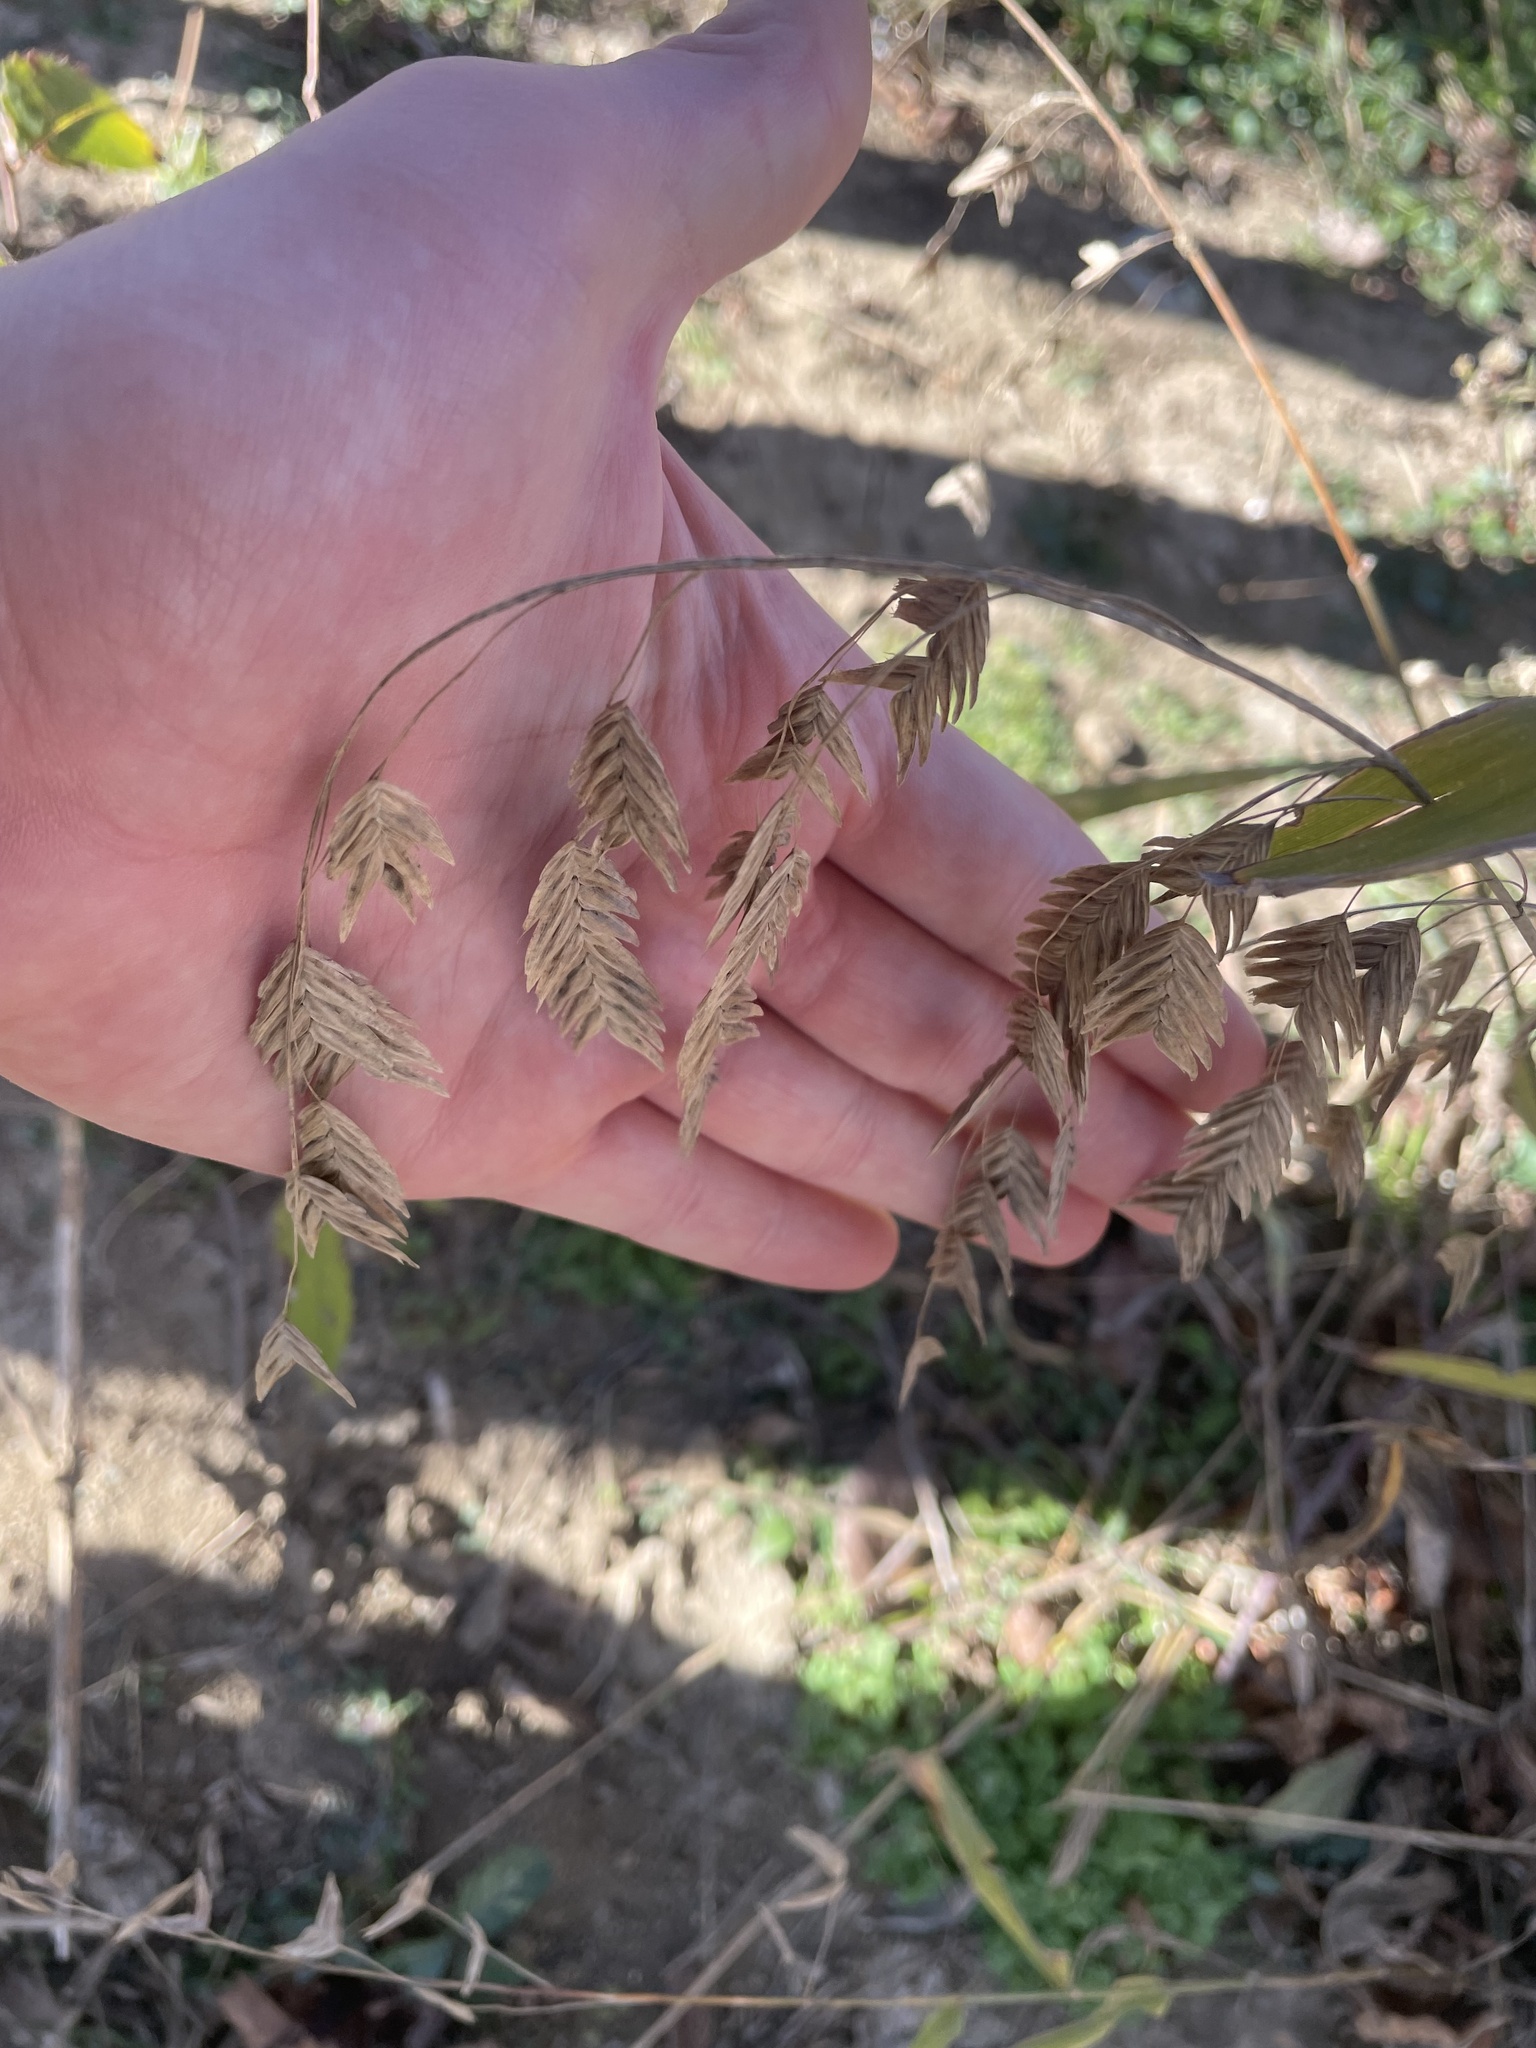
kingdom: Plantae
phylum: Tracheophyta
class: Liliopsida
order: Poales
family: Poaceae
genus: Chasmanthium
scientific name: Chasmanthium latifolium
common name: Broad-leaved chasmanthium
